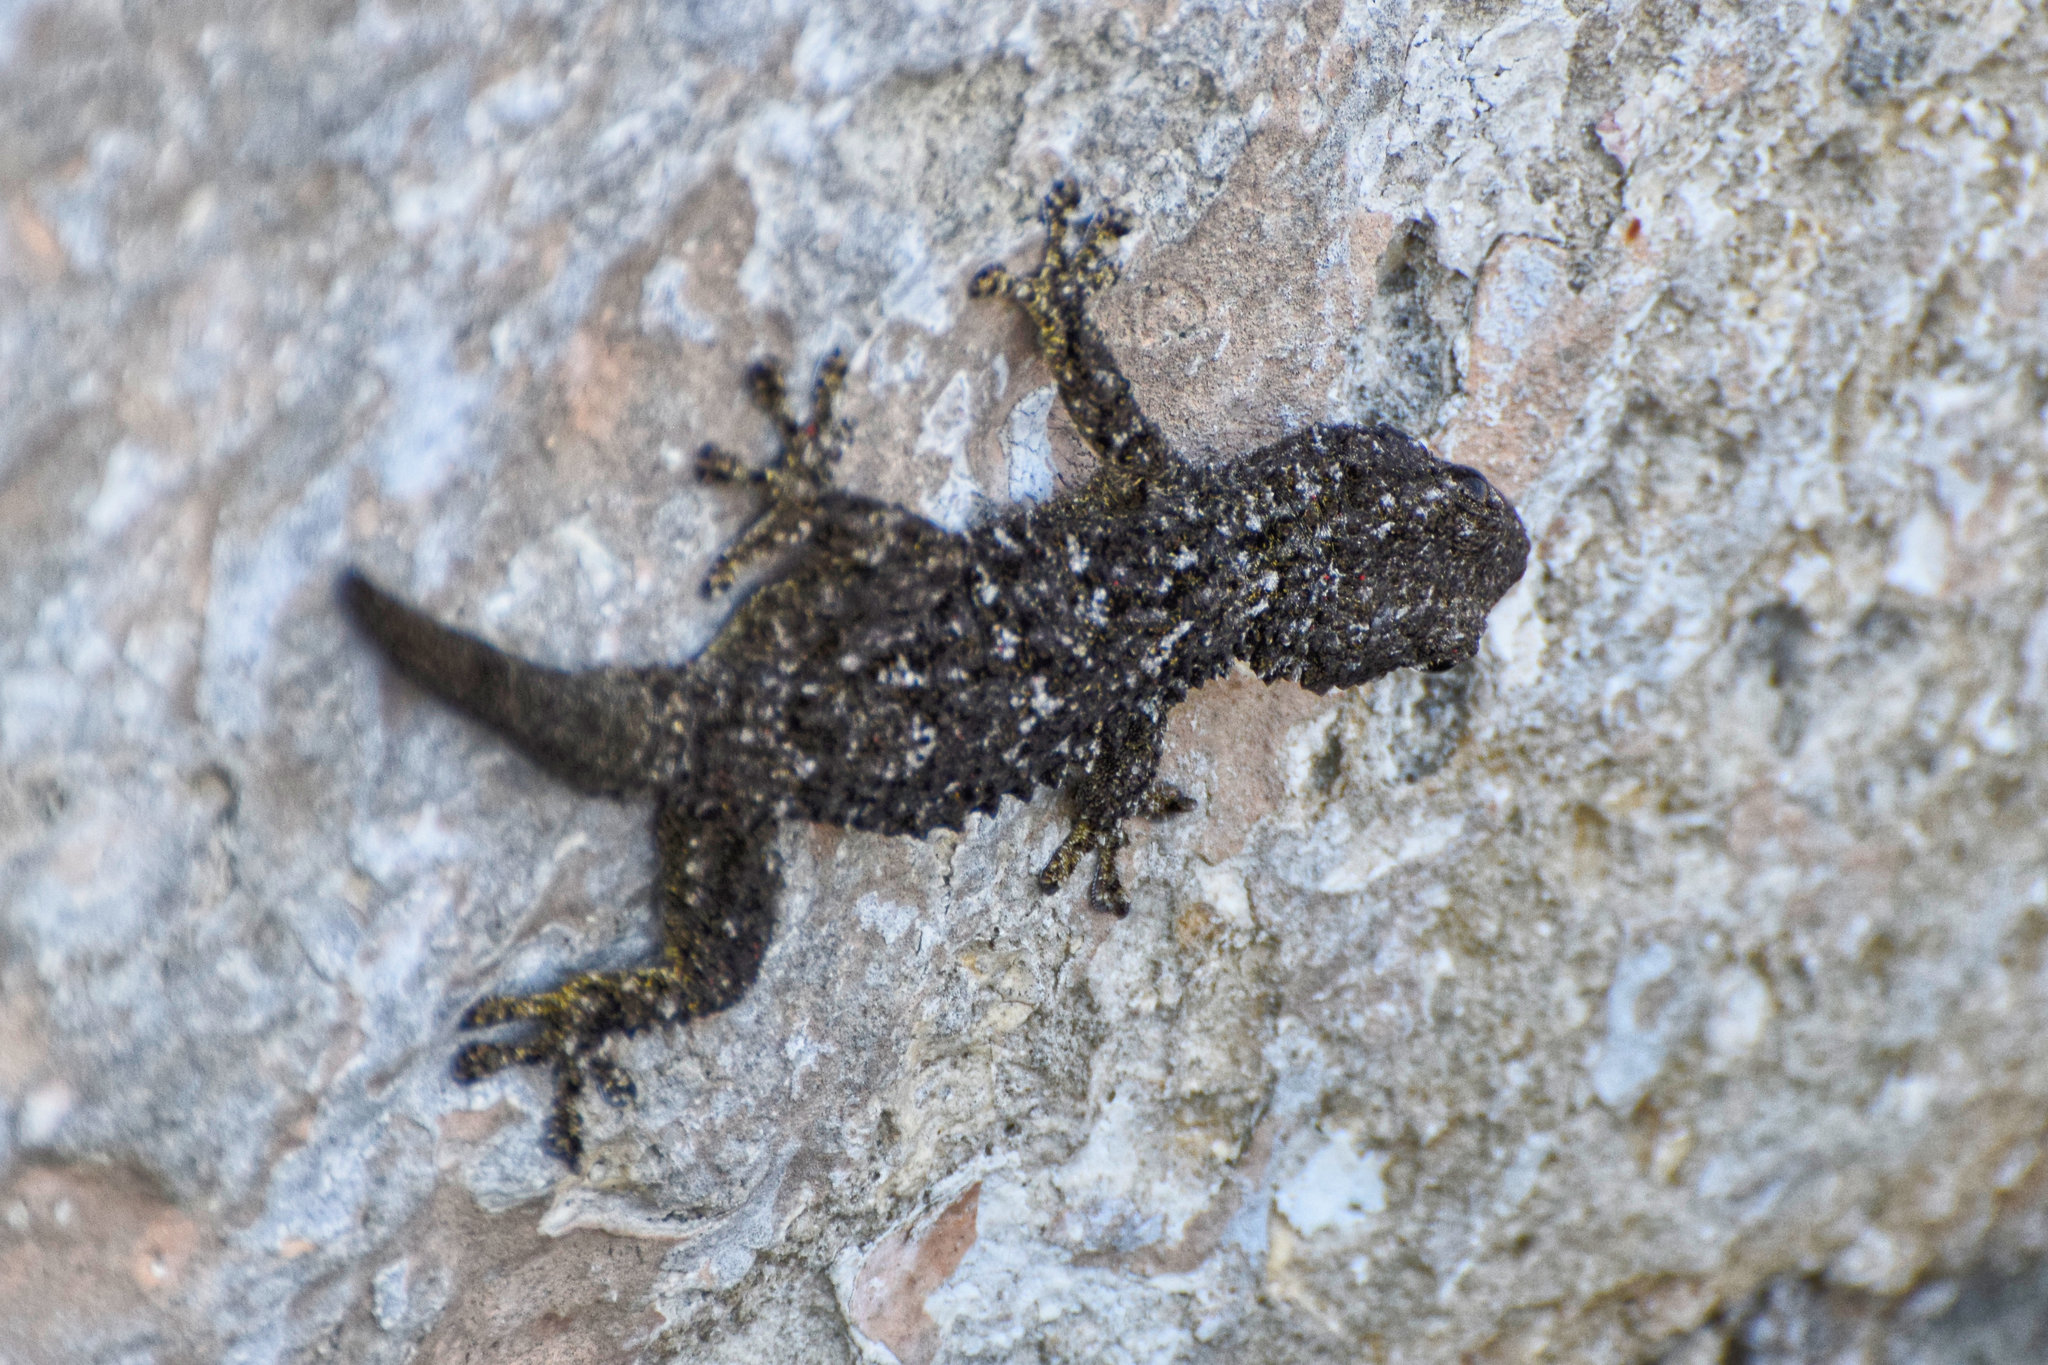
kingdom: Animalia
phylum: Chordata
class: Squamata
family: Phyllodactylidae
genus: Tarentola
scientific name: Tarentola mauritanica
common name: Moorish gecko
